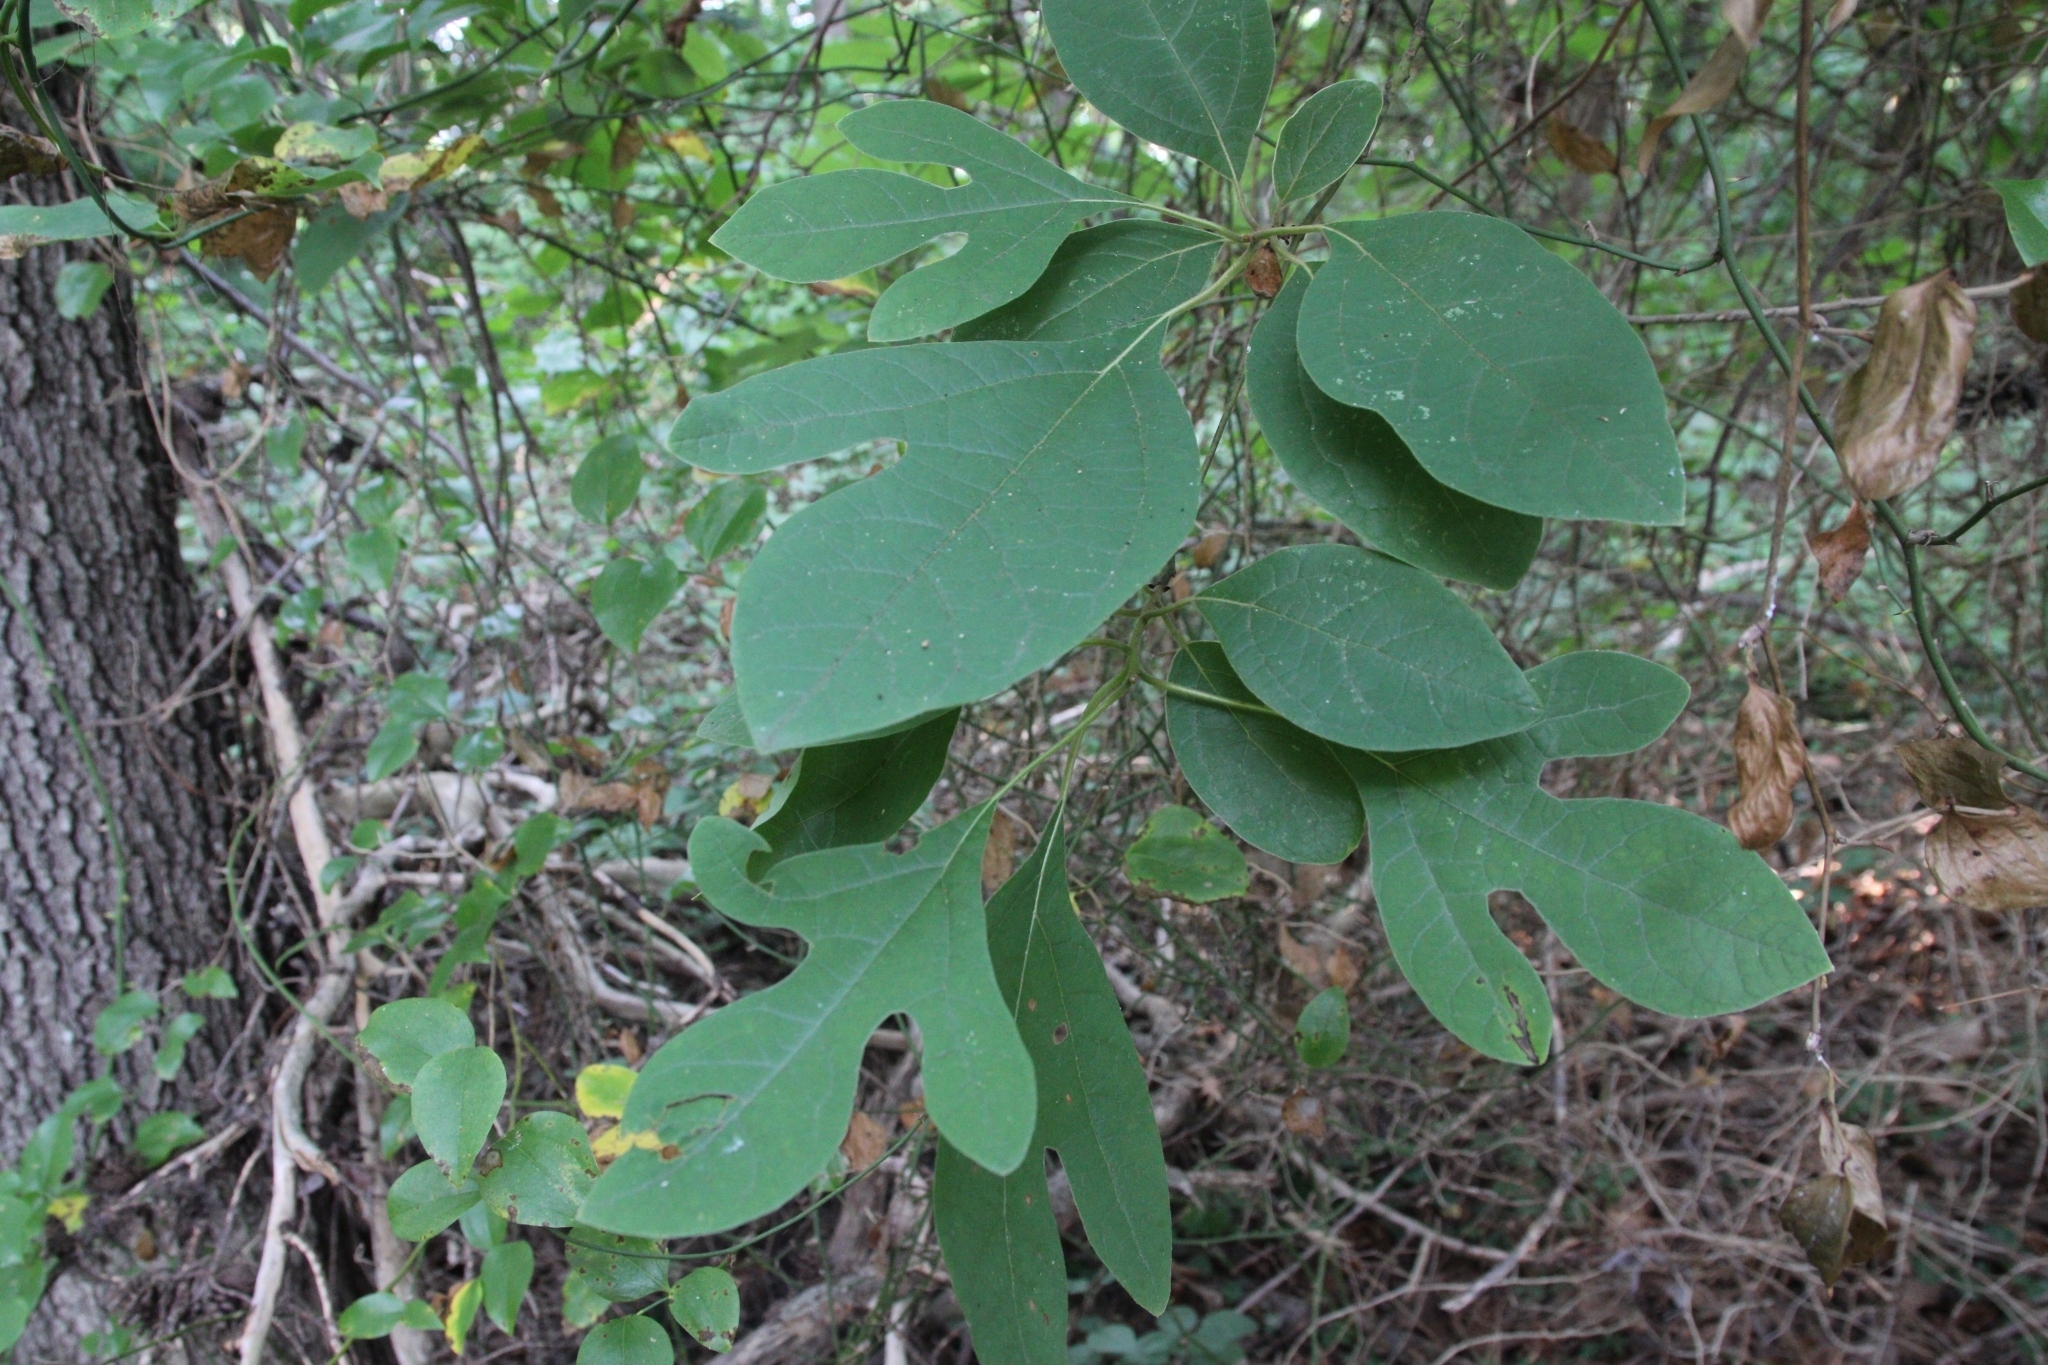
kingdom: Plantae
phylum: Tracheophyta
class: Magnoliopsida
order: Laurales
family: Lauraceae
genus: Sassafras
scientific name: Sassafras albidum
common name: Sassafras
